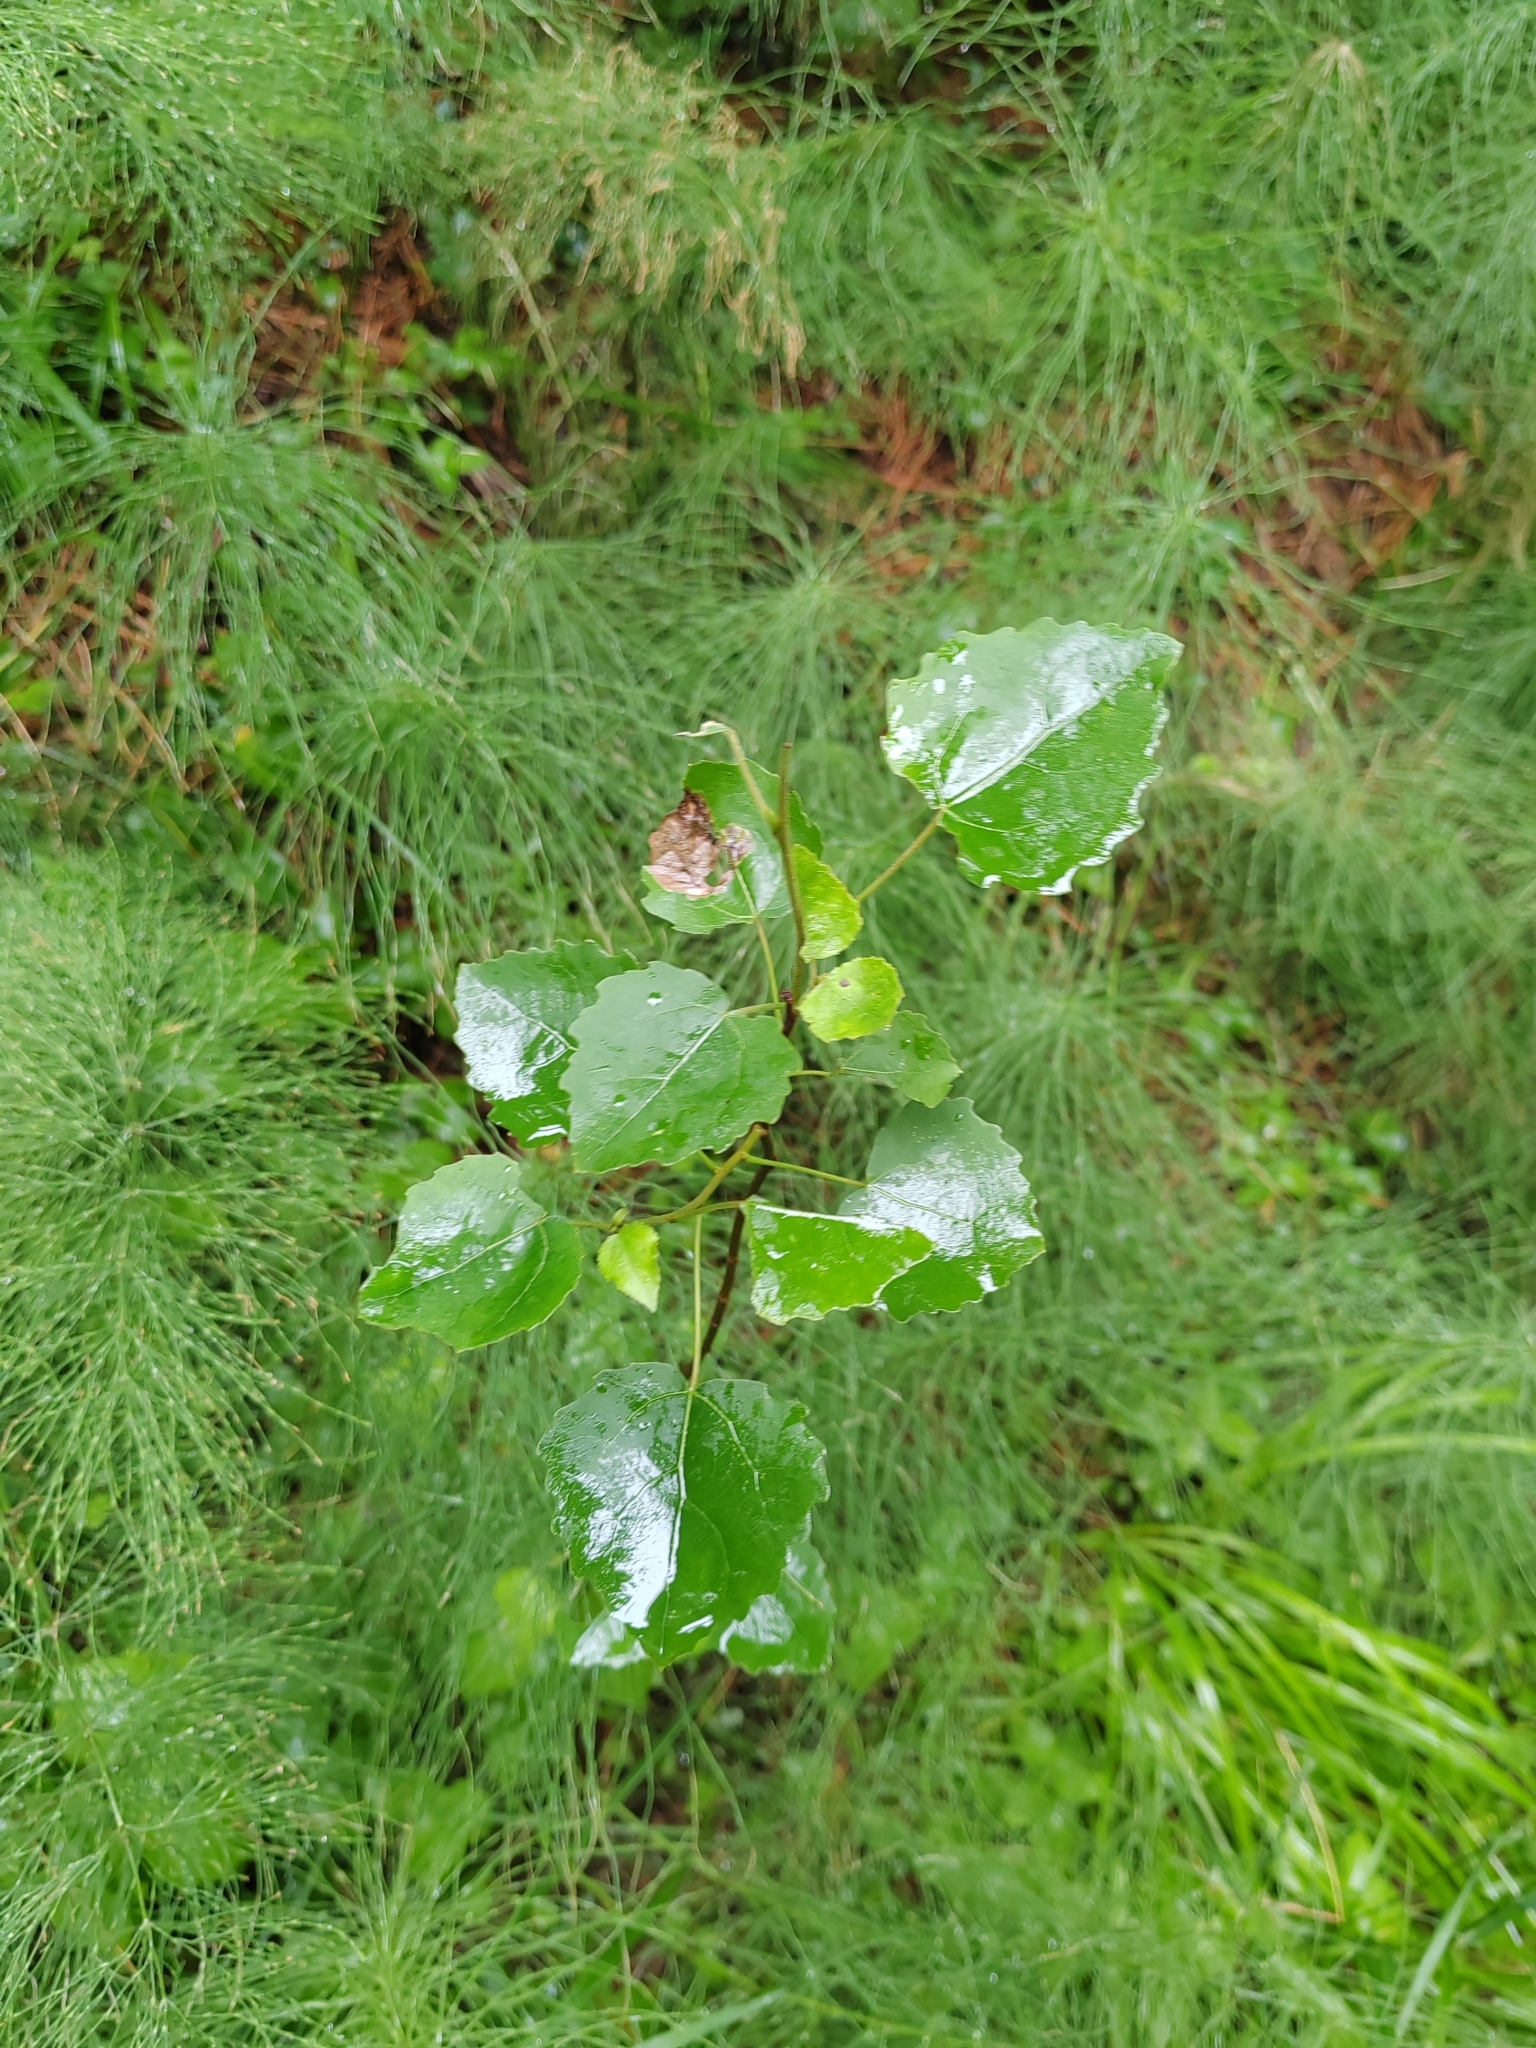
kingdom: Plantae
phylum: Tracheophyta
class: Magnoliopsida
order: Malpighiales
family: Salicaceae
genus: Populus
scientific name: Populus tremula
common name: European aspen
